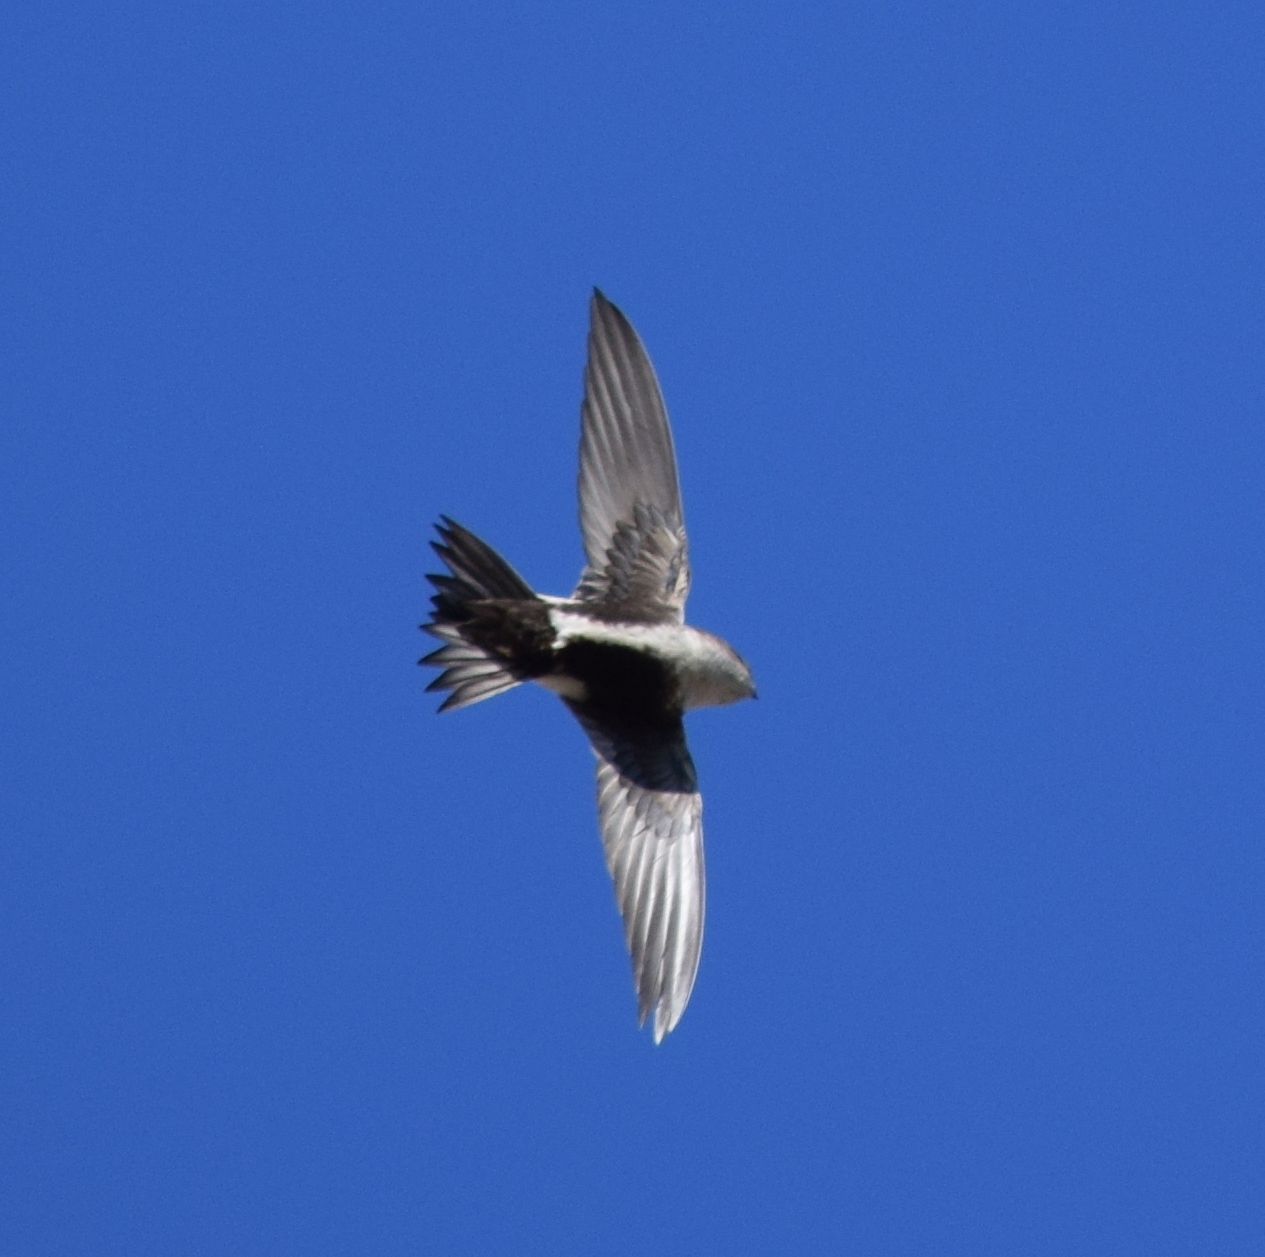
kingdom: Animalia
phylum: Chordata
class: Aves
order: Apodiformes
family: Apodidae
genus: Aeronautes
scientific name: Aeronautes saxatalis
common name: White-throated swift
